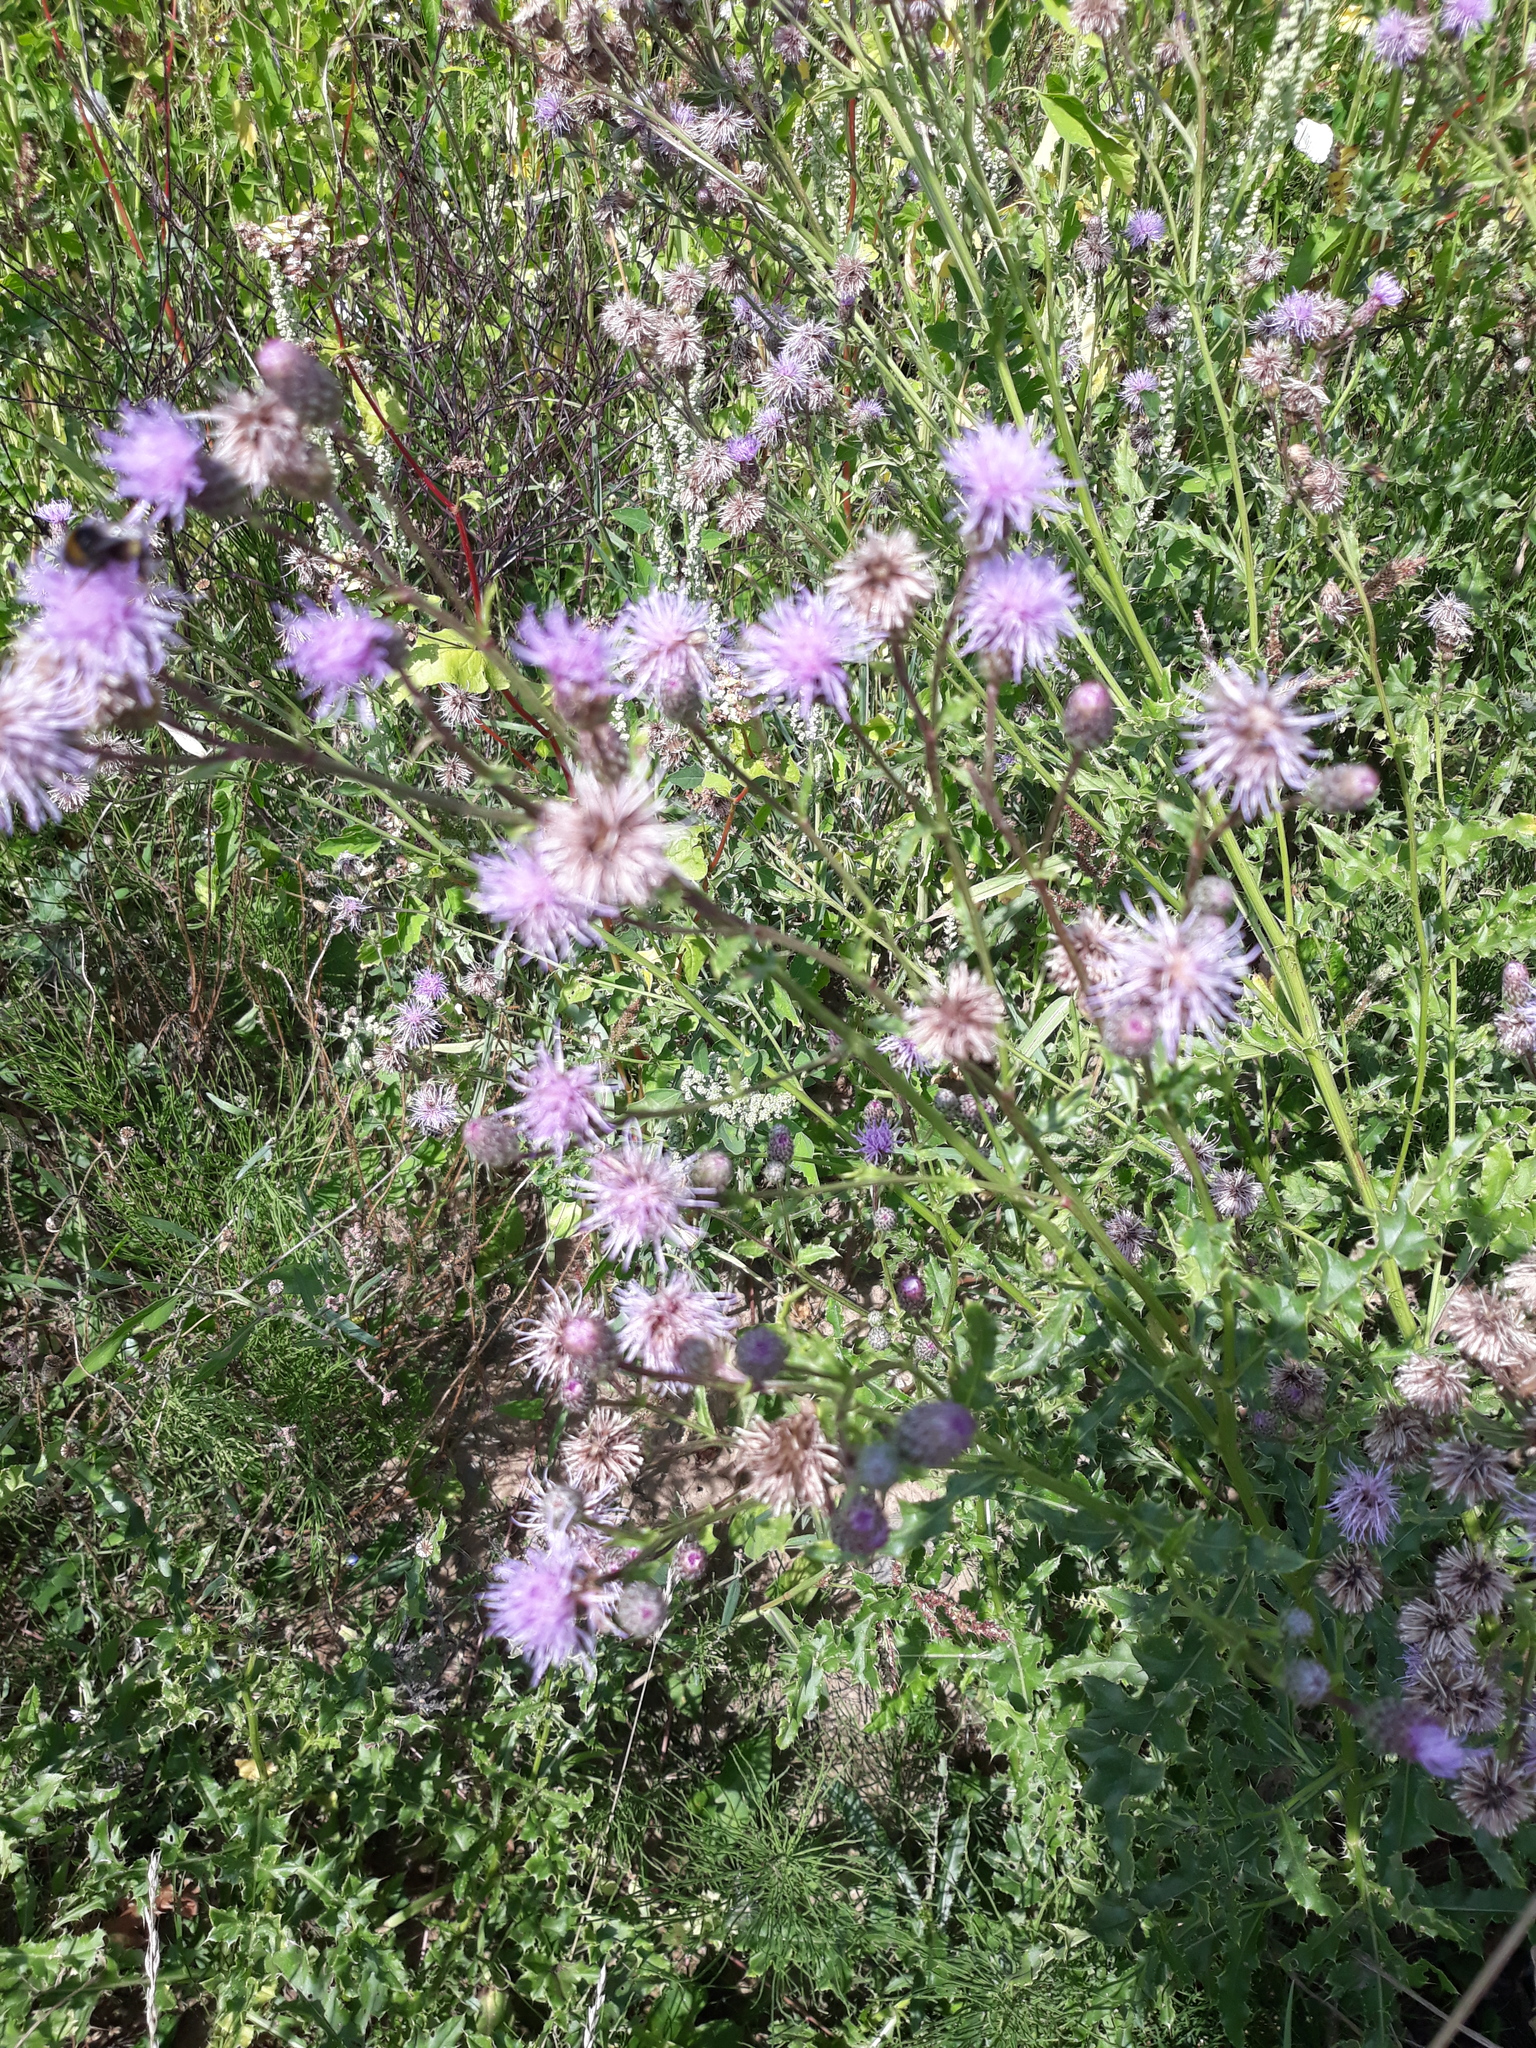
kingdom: Plantae
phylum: Tracheophyta
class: Magnoliopsida
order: Asterales
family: Asteraceae
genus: Cirsium
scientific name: Cirsium arvense
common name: Creeping thistle
